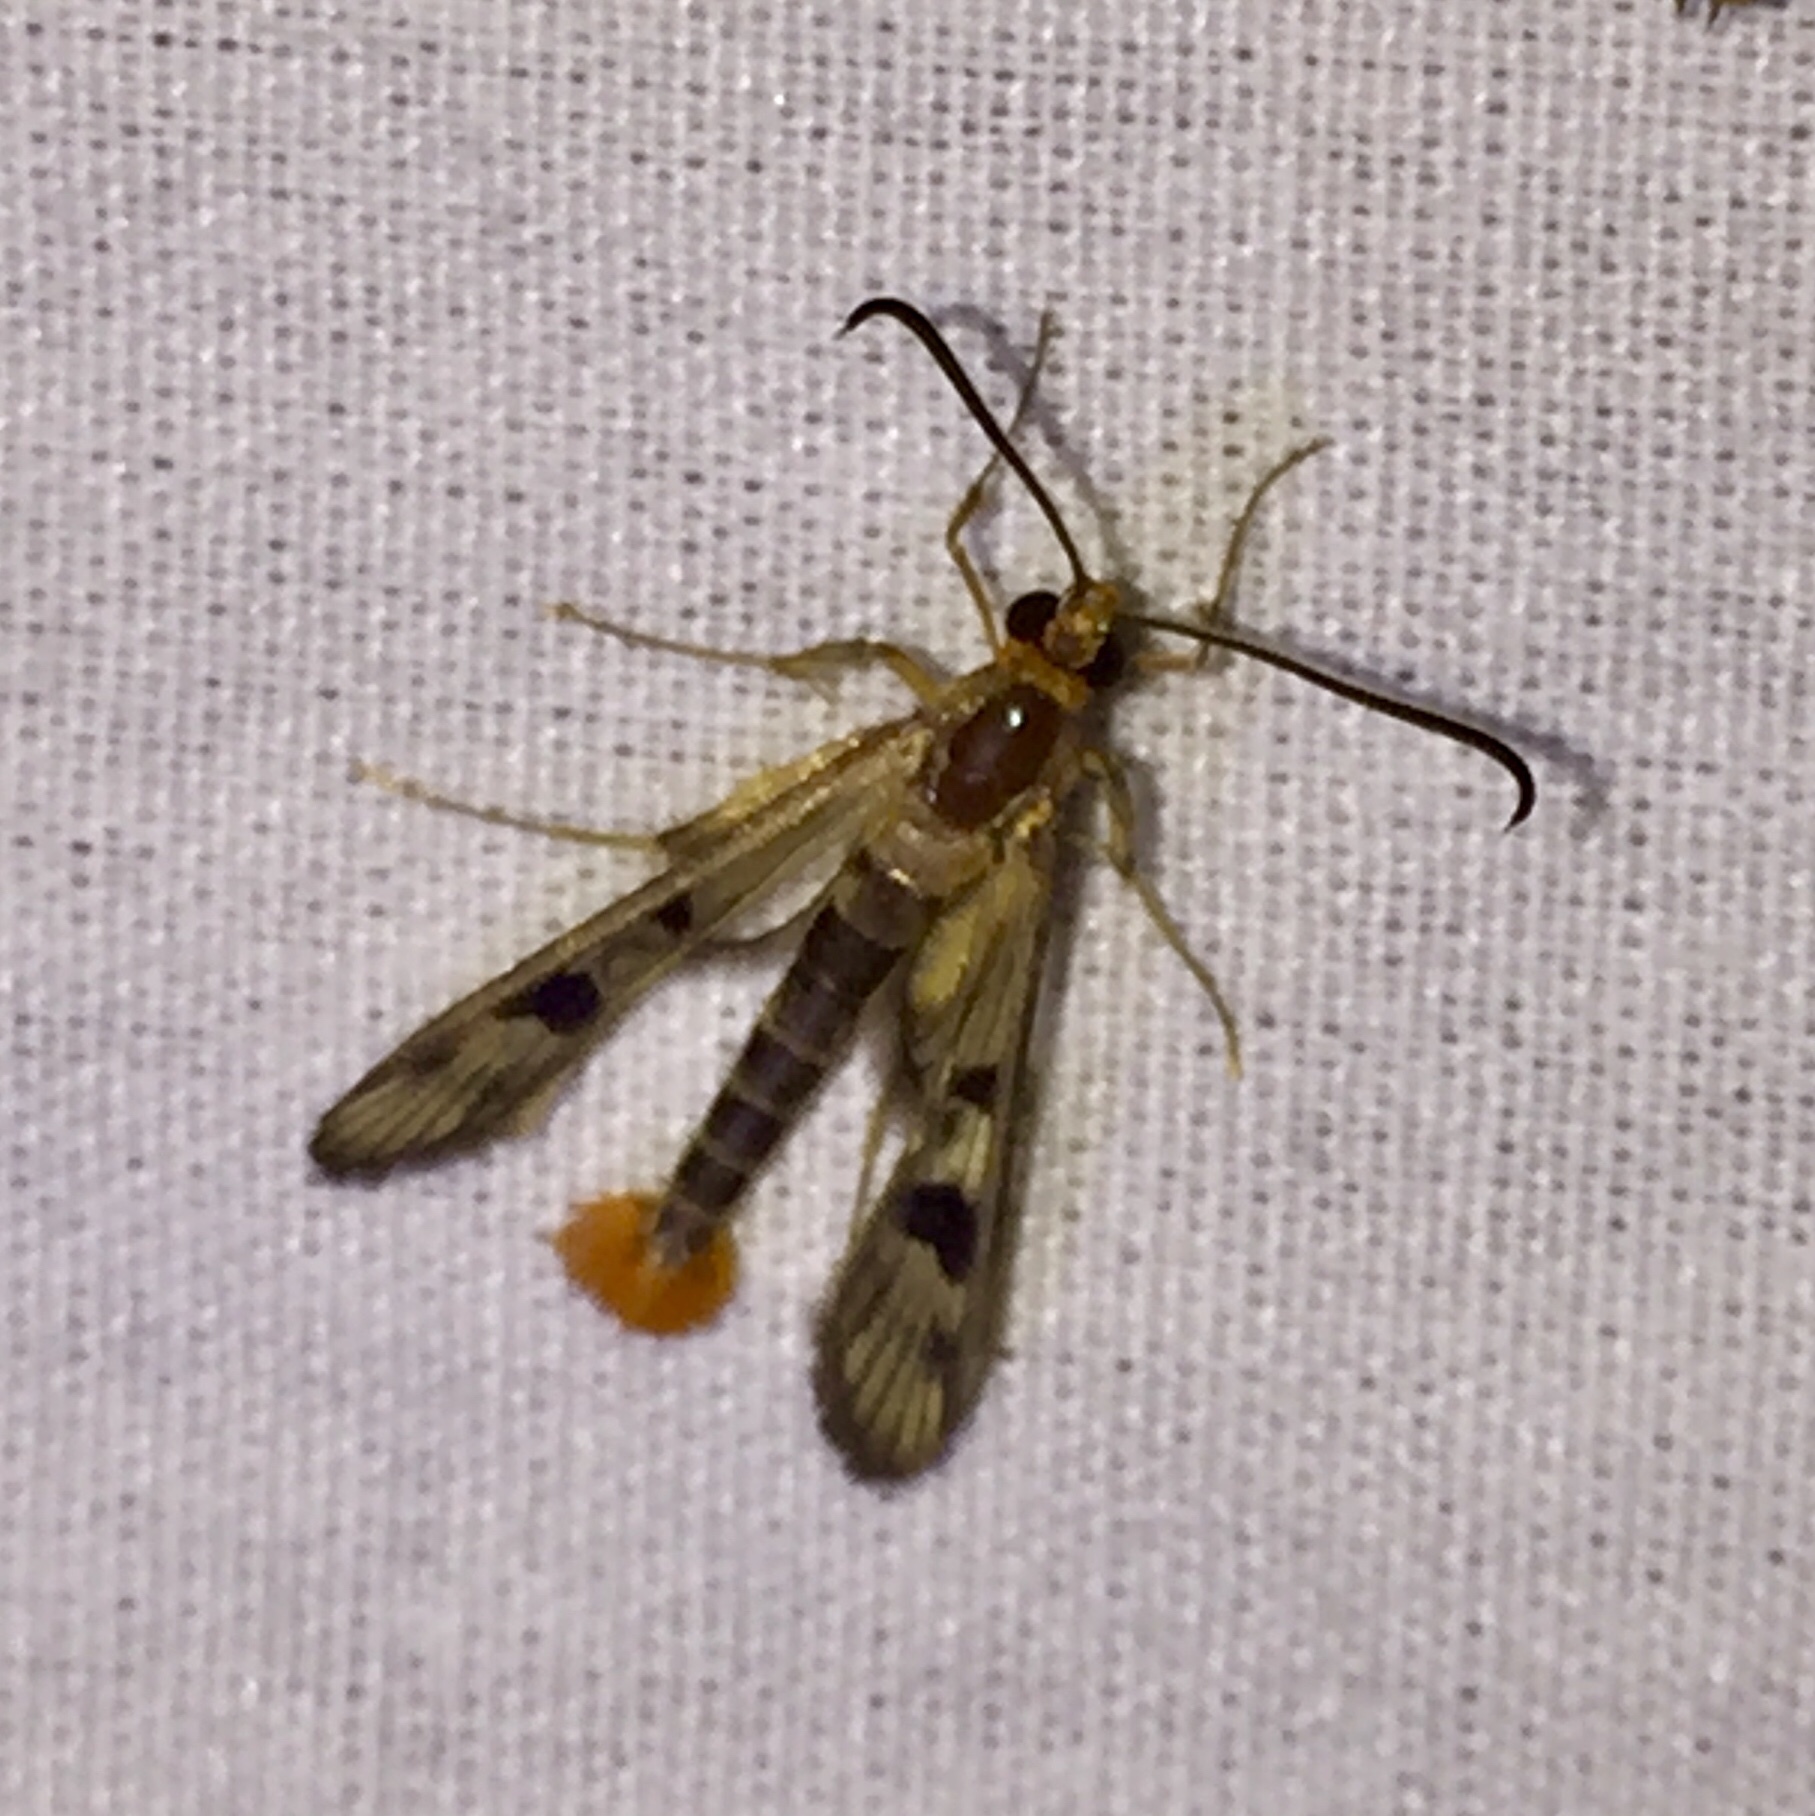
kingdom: Animalia
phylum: Arthropoda
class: Insecta
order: Lepidoptera
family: Sesiidae
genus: Synanthedon
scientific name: Synanthedon acerni
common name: Maple callus borer moth
